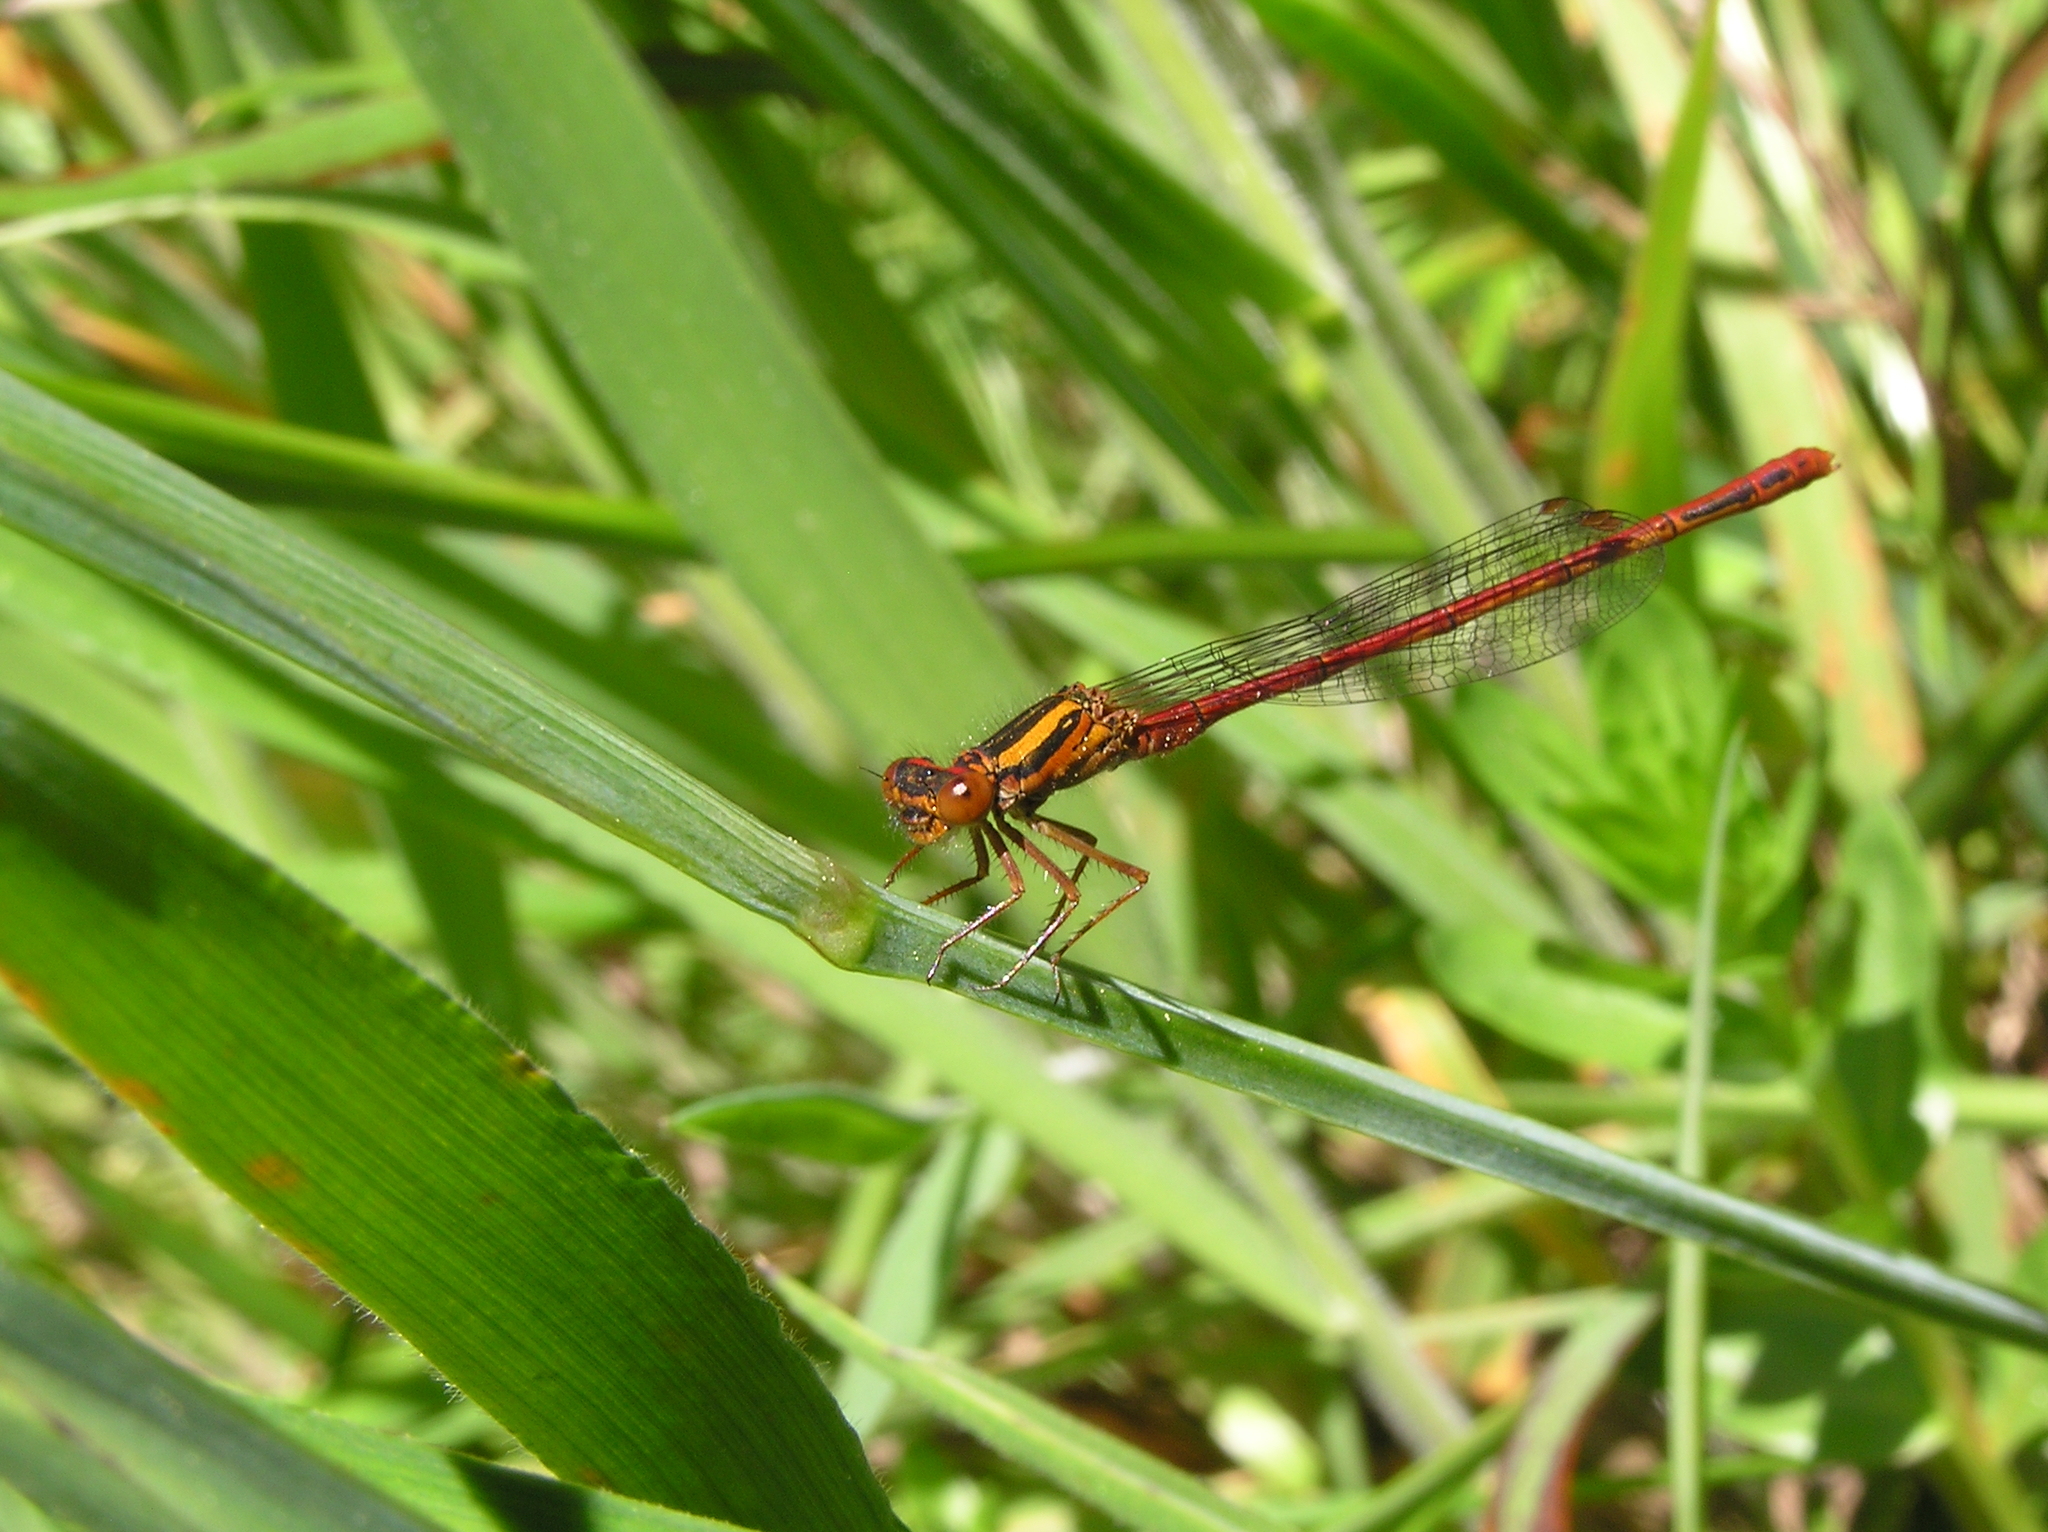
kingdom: Animalia
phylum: Arthropoda
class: Insecta
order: Odonata
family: Coenagrionidae
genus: Xanthocnemis
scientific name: Xanthocnemis zealandica
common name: Common redcoat damselfly
